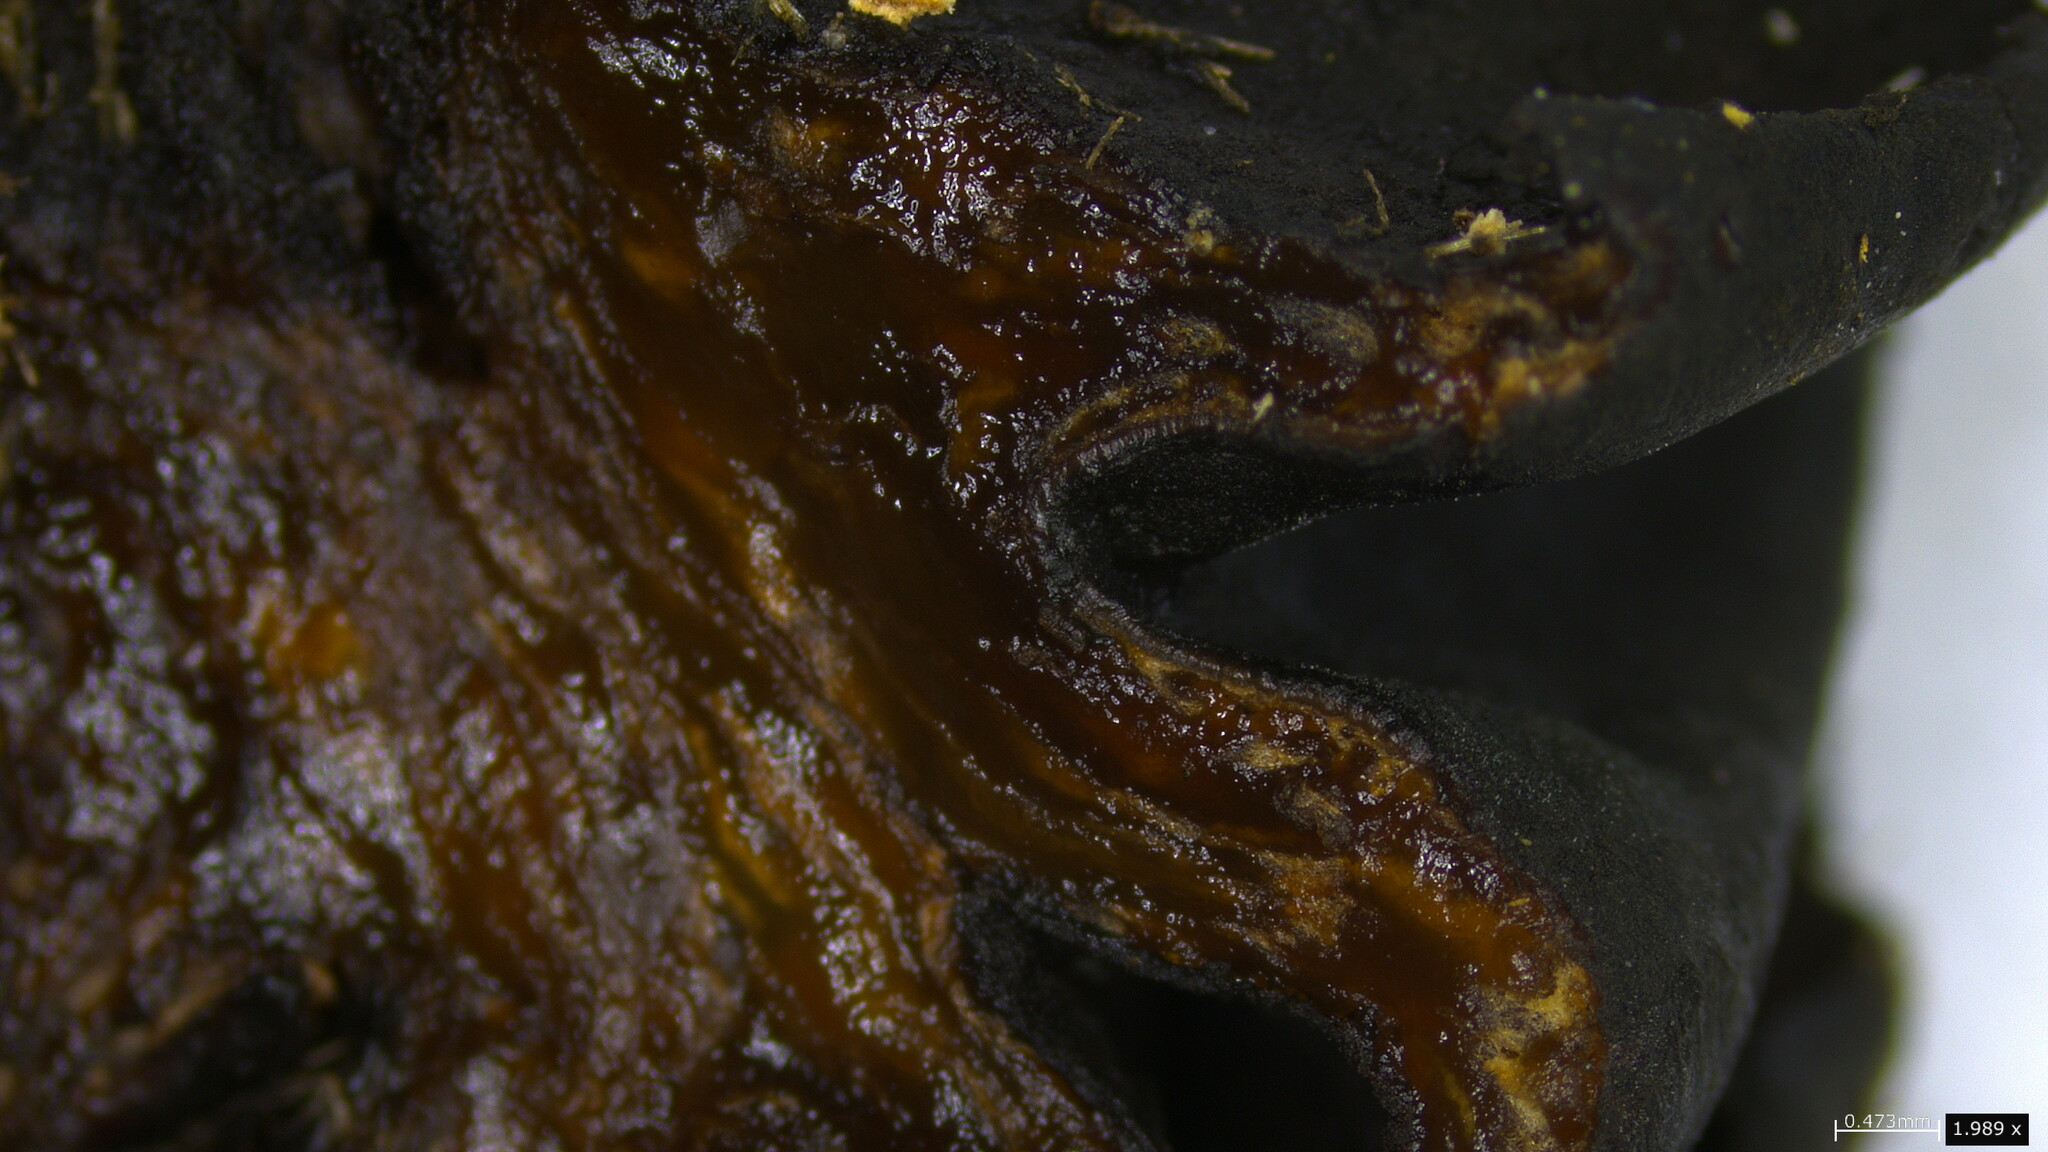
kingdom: Fungi
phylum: Ascomycota
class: Leotiomycetes
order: Phacidiales
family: Phacidiaceae
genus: Bulgaria
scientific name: Bulgaria inquinans
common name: Black bulgar
